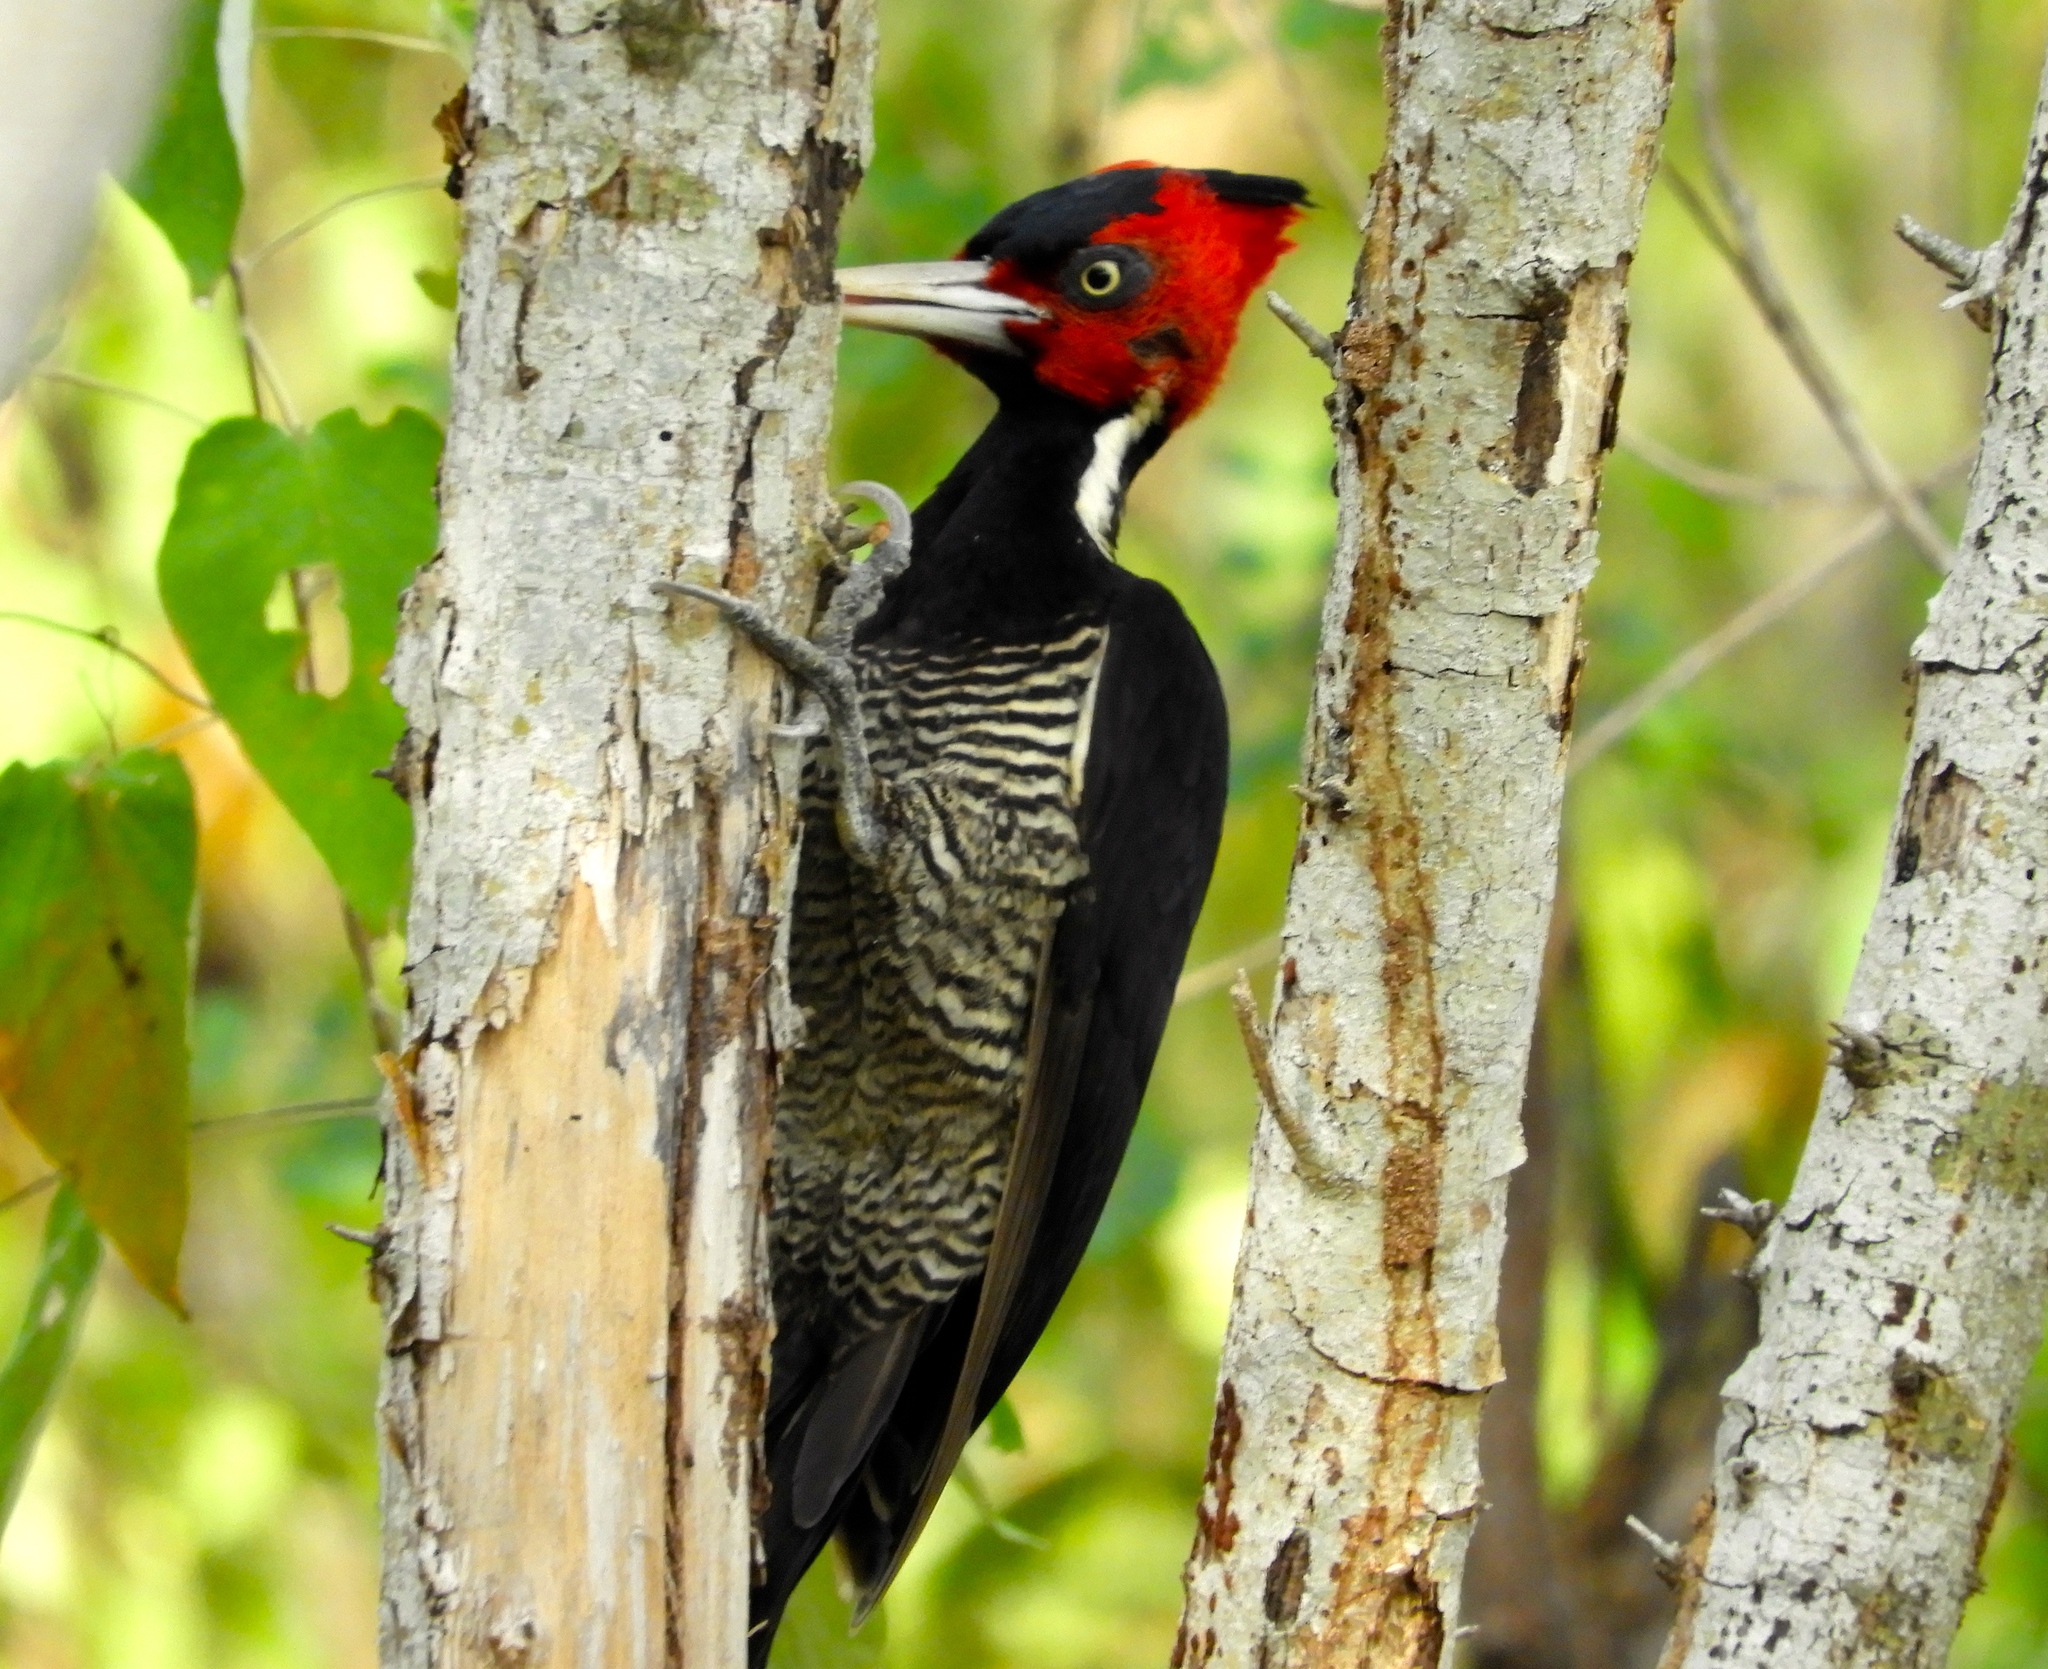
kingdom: Animalia
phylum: Chordata
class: Aves
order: Piciformes
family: Picidae
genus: Dryocopus
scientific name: Dryocopus lineatus
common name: Lineated woodpecker
